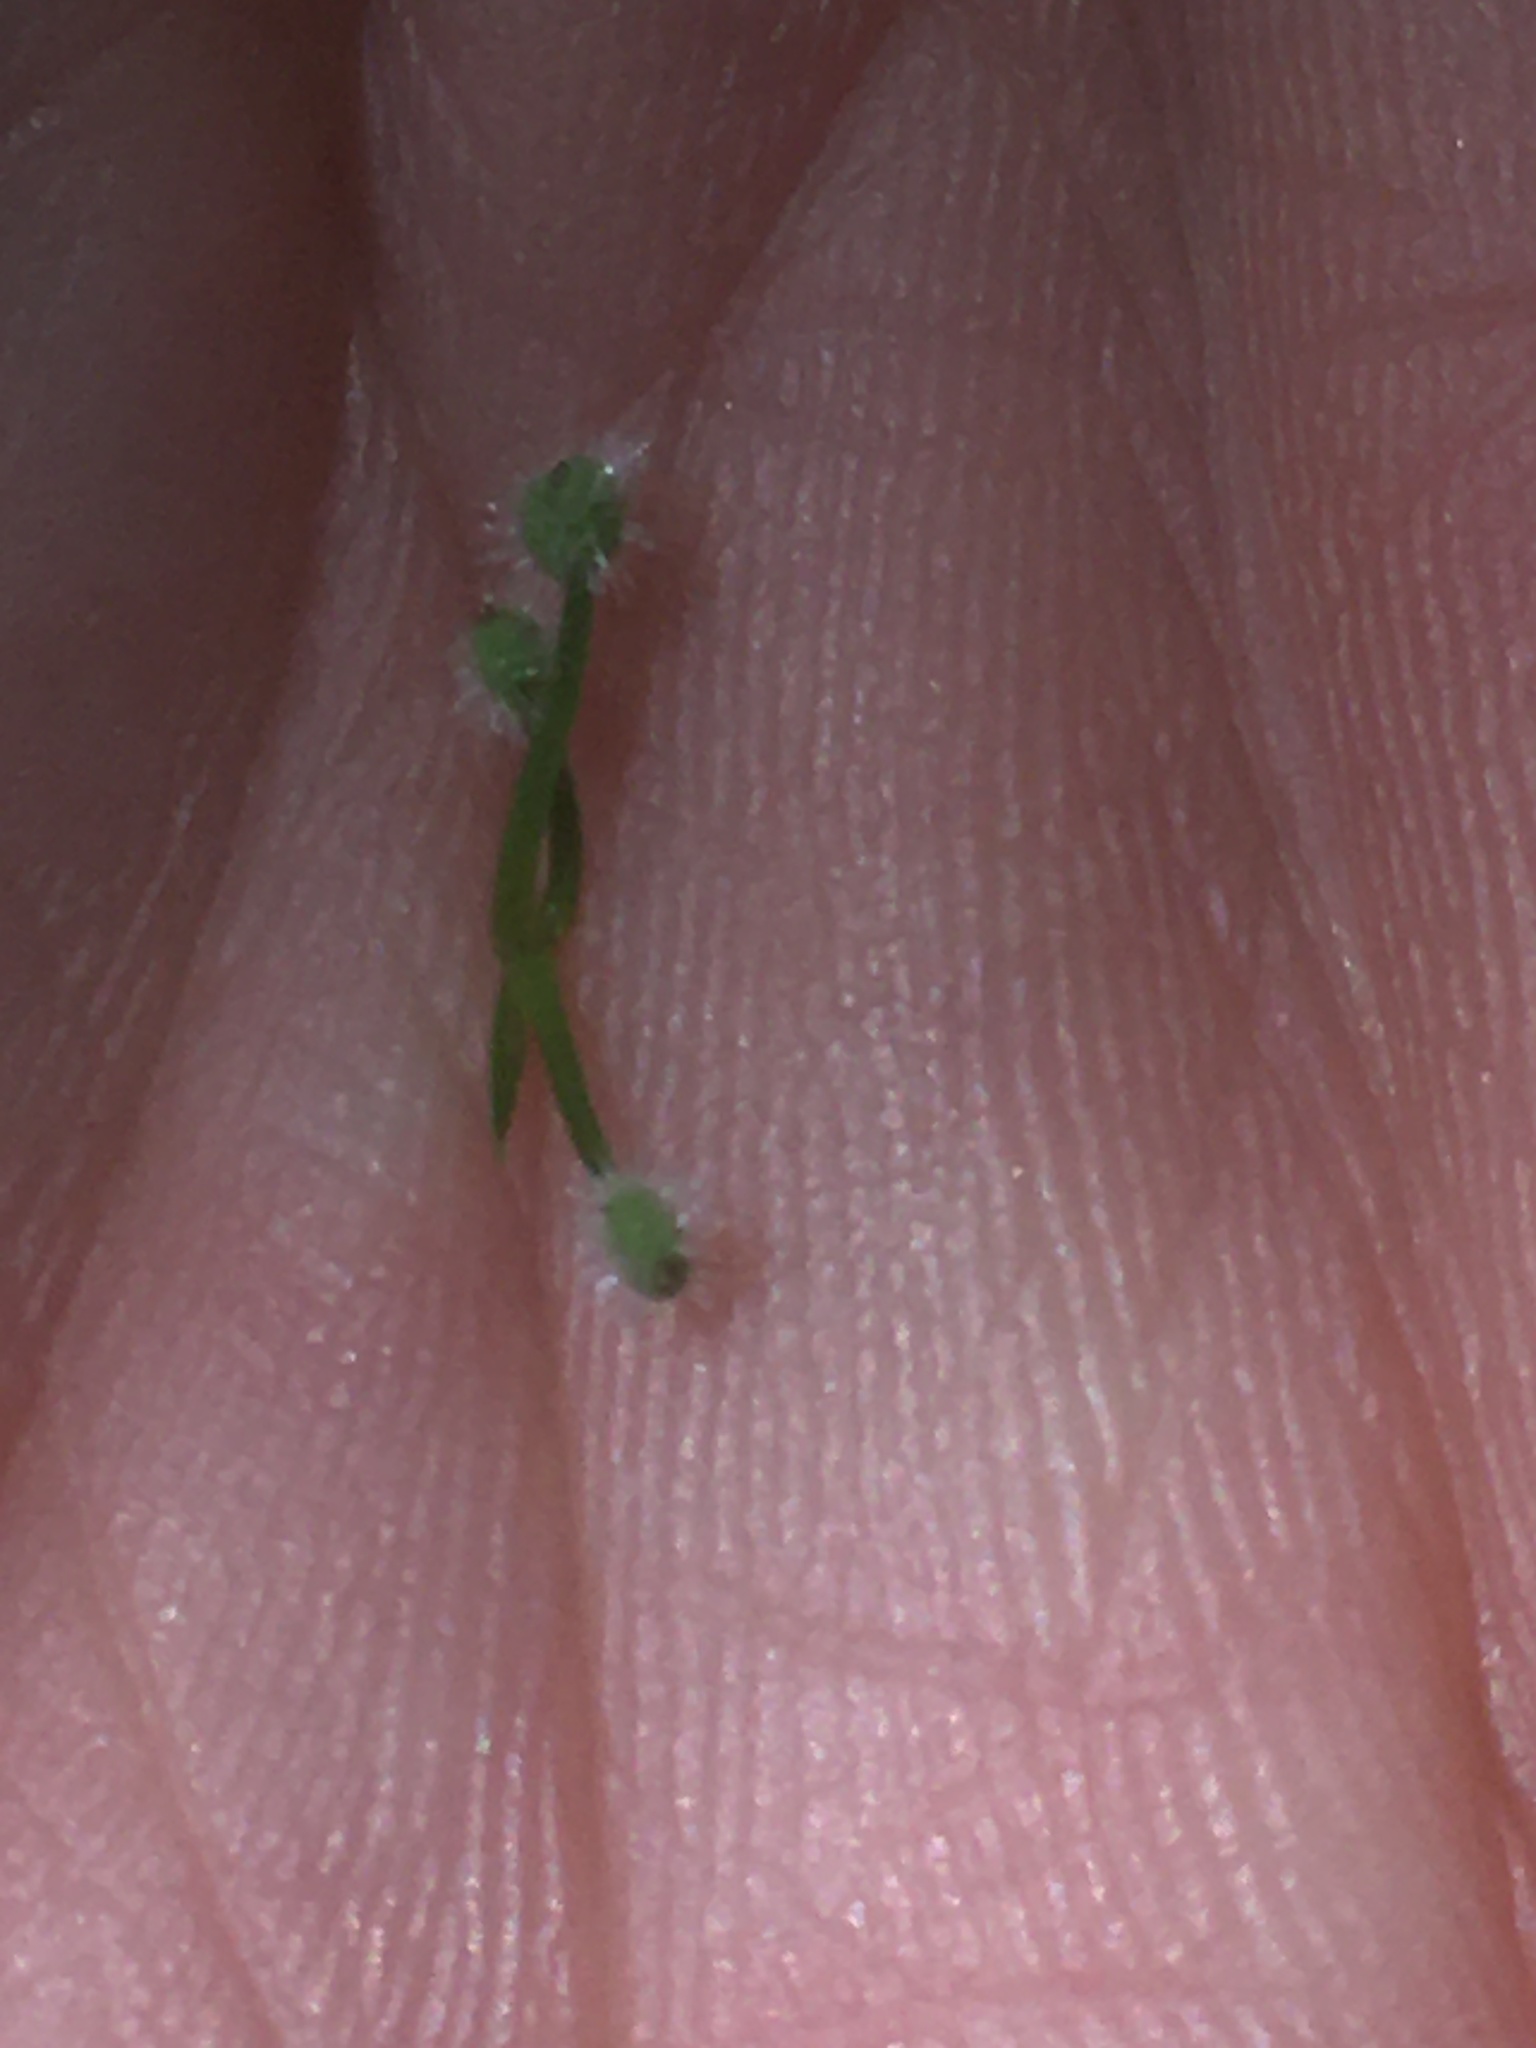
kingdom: Plantae
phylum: Tracheophyta
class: Magnoliopsida
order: Gentianales
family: Rubiaceae
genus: Galium
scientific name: Galium triflorum
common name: Fragrant bedstraw
